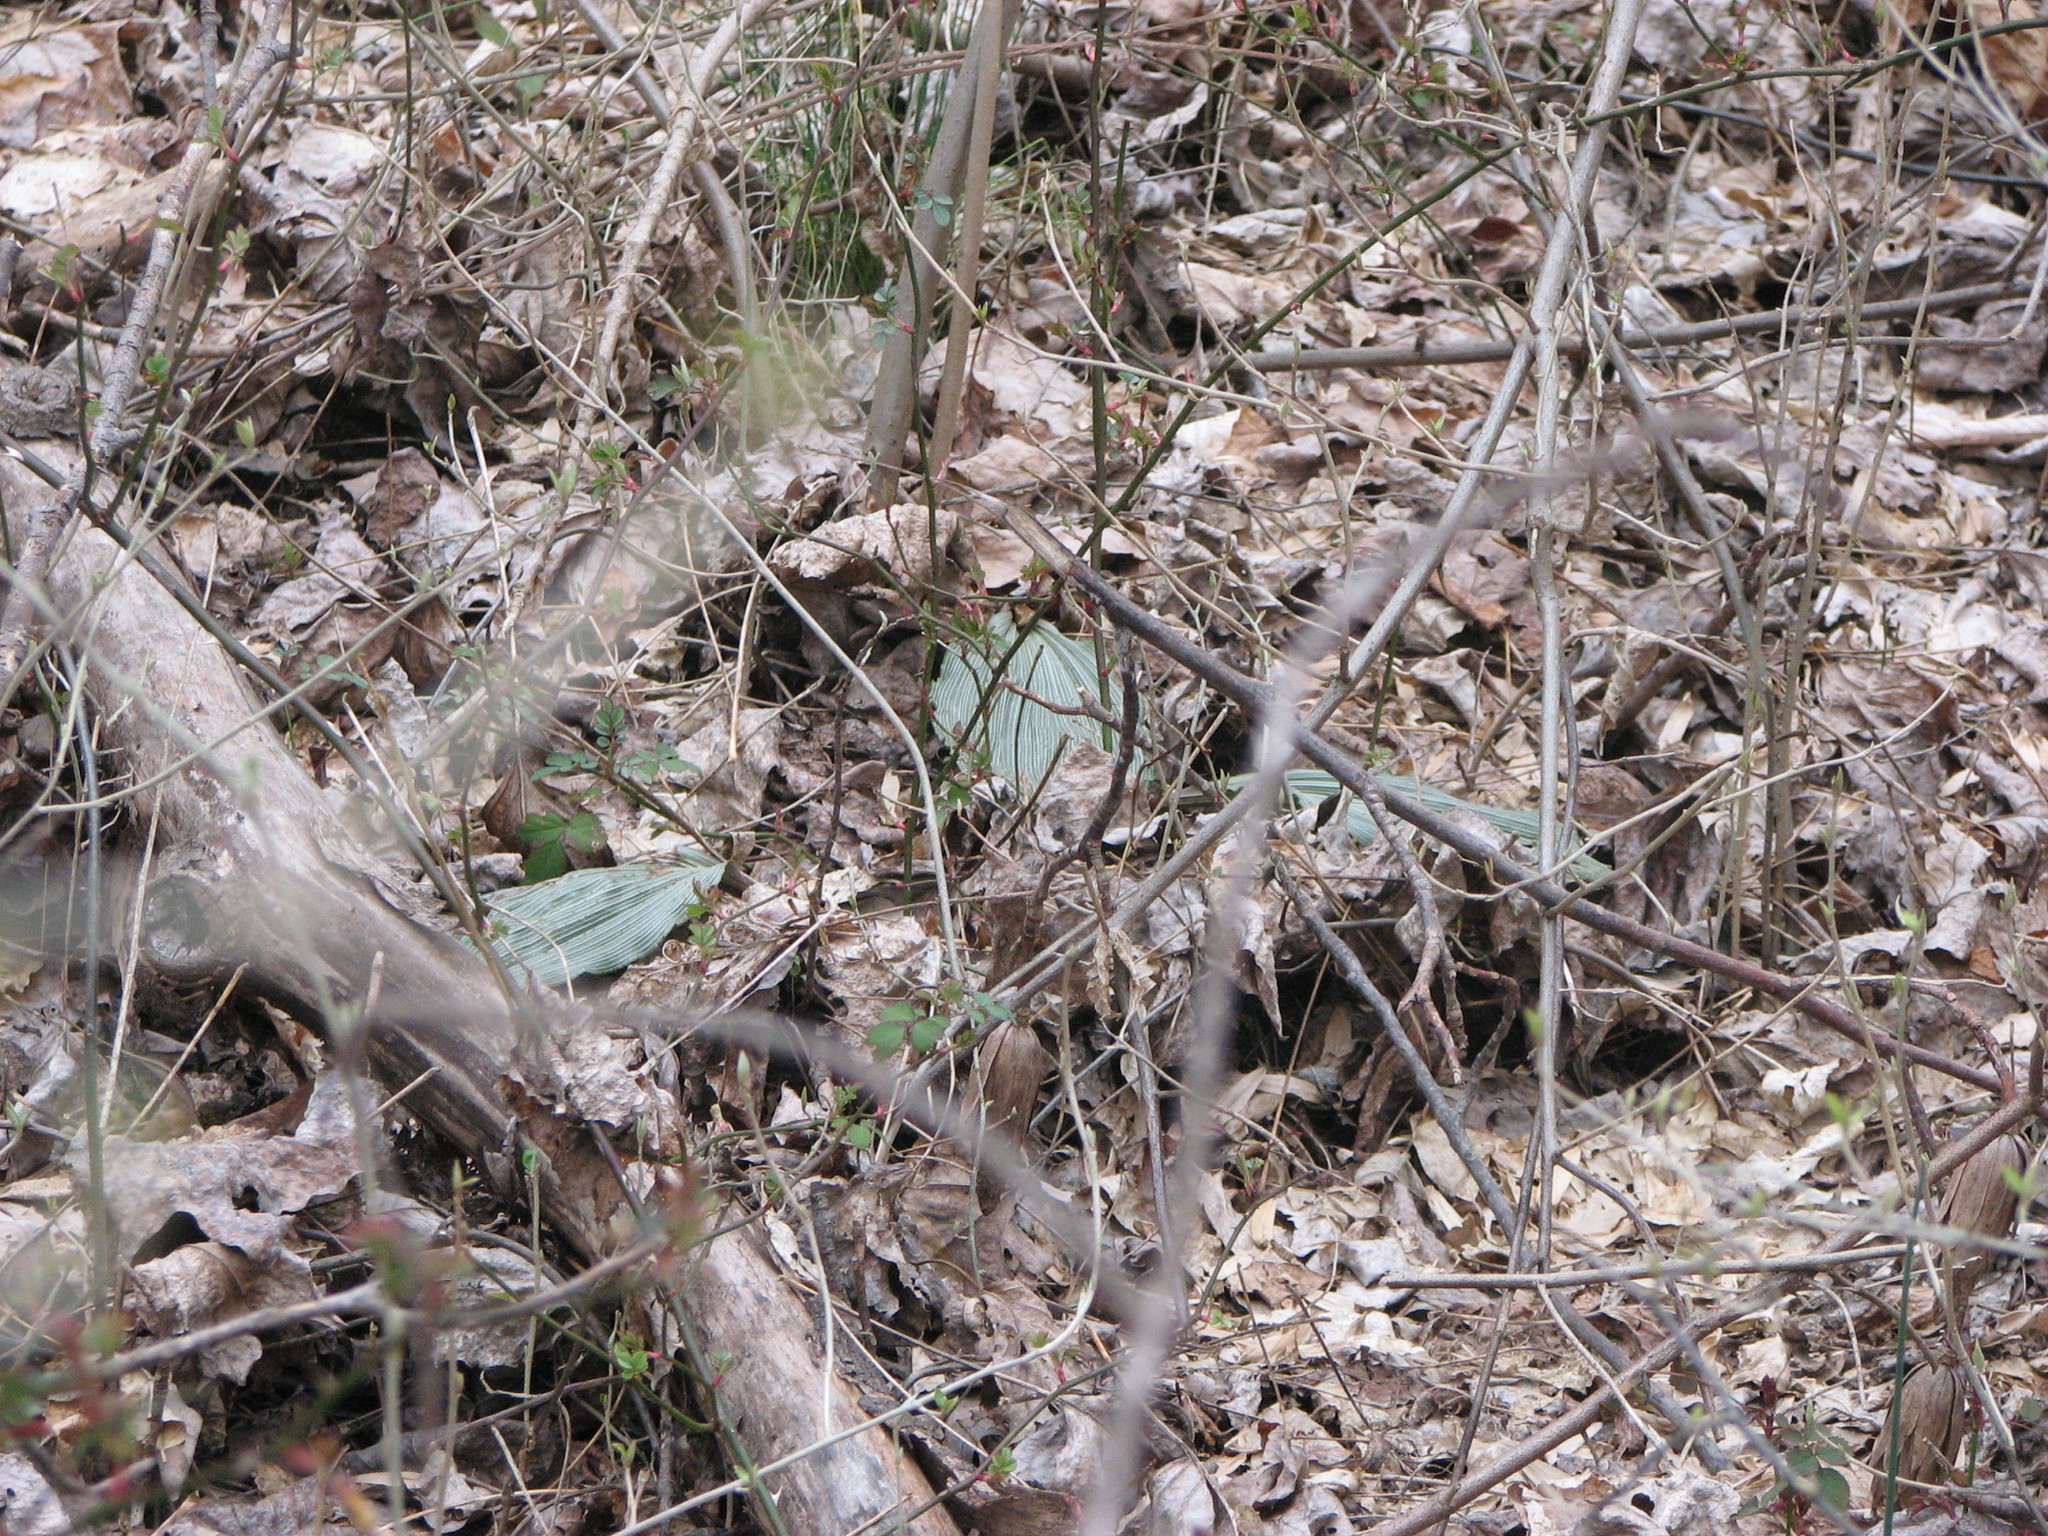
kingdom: Plantae
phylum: Tracheophyta
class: Liliopsida
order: Asparagales
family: Orchidaceae
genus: Aplectrum
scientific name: Aplectrum hyemale
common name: Adam-and-eve
